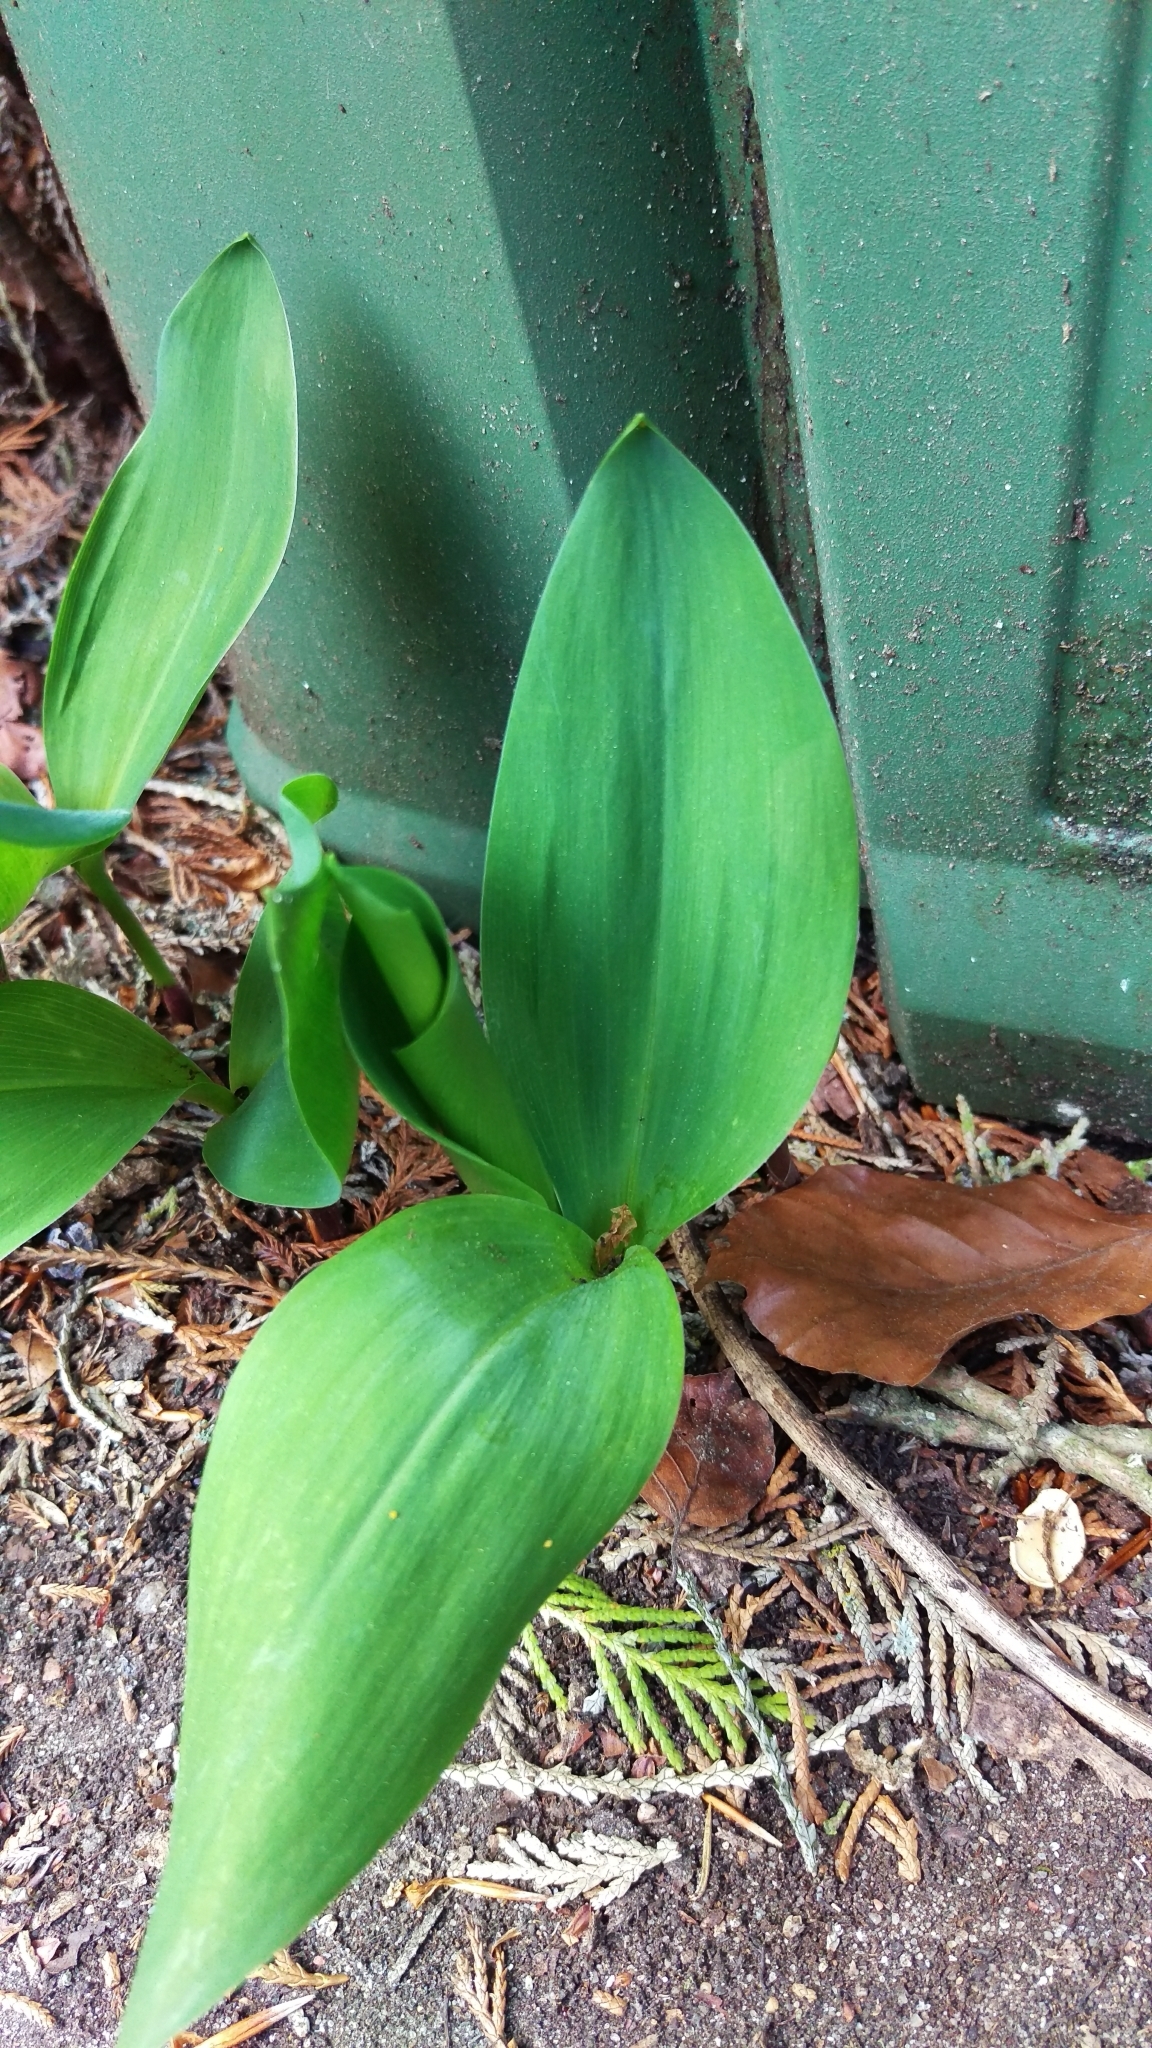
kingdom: Plantae
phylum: Tracheophyta
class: Liliopsida
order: Asparagales
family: Asparagaceae
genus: Convallaria
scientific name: Convallaria majalis
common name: Lily-of-the-valley
